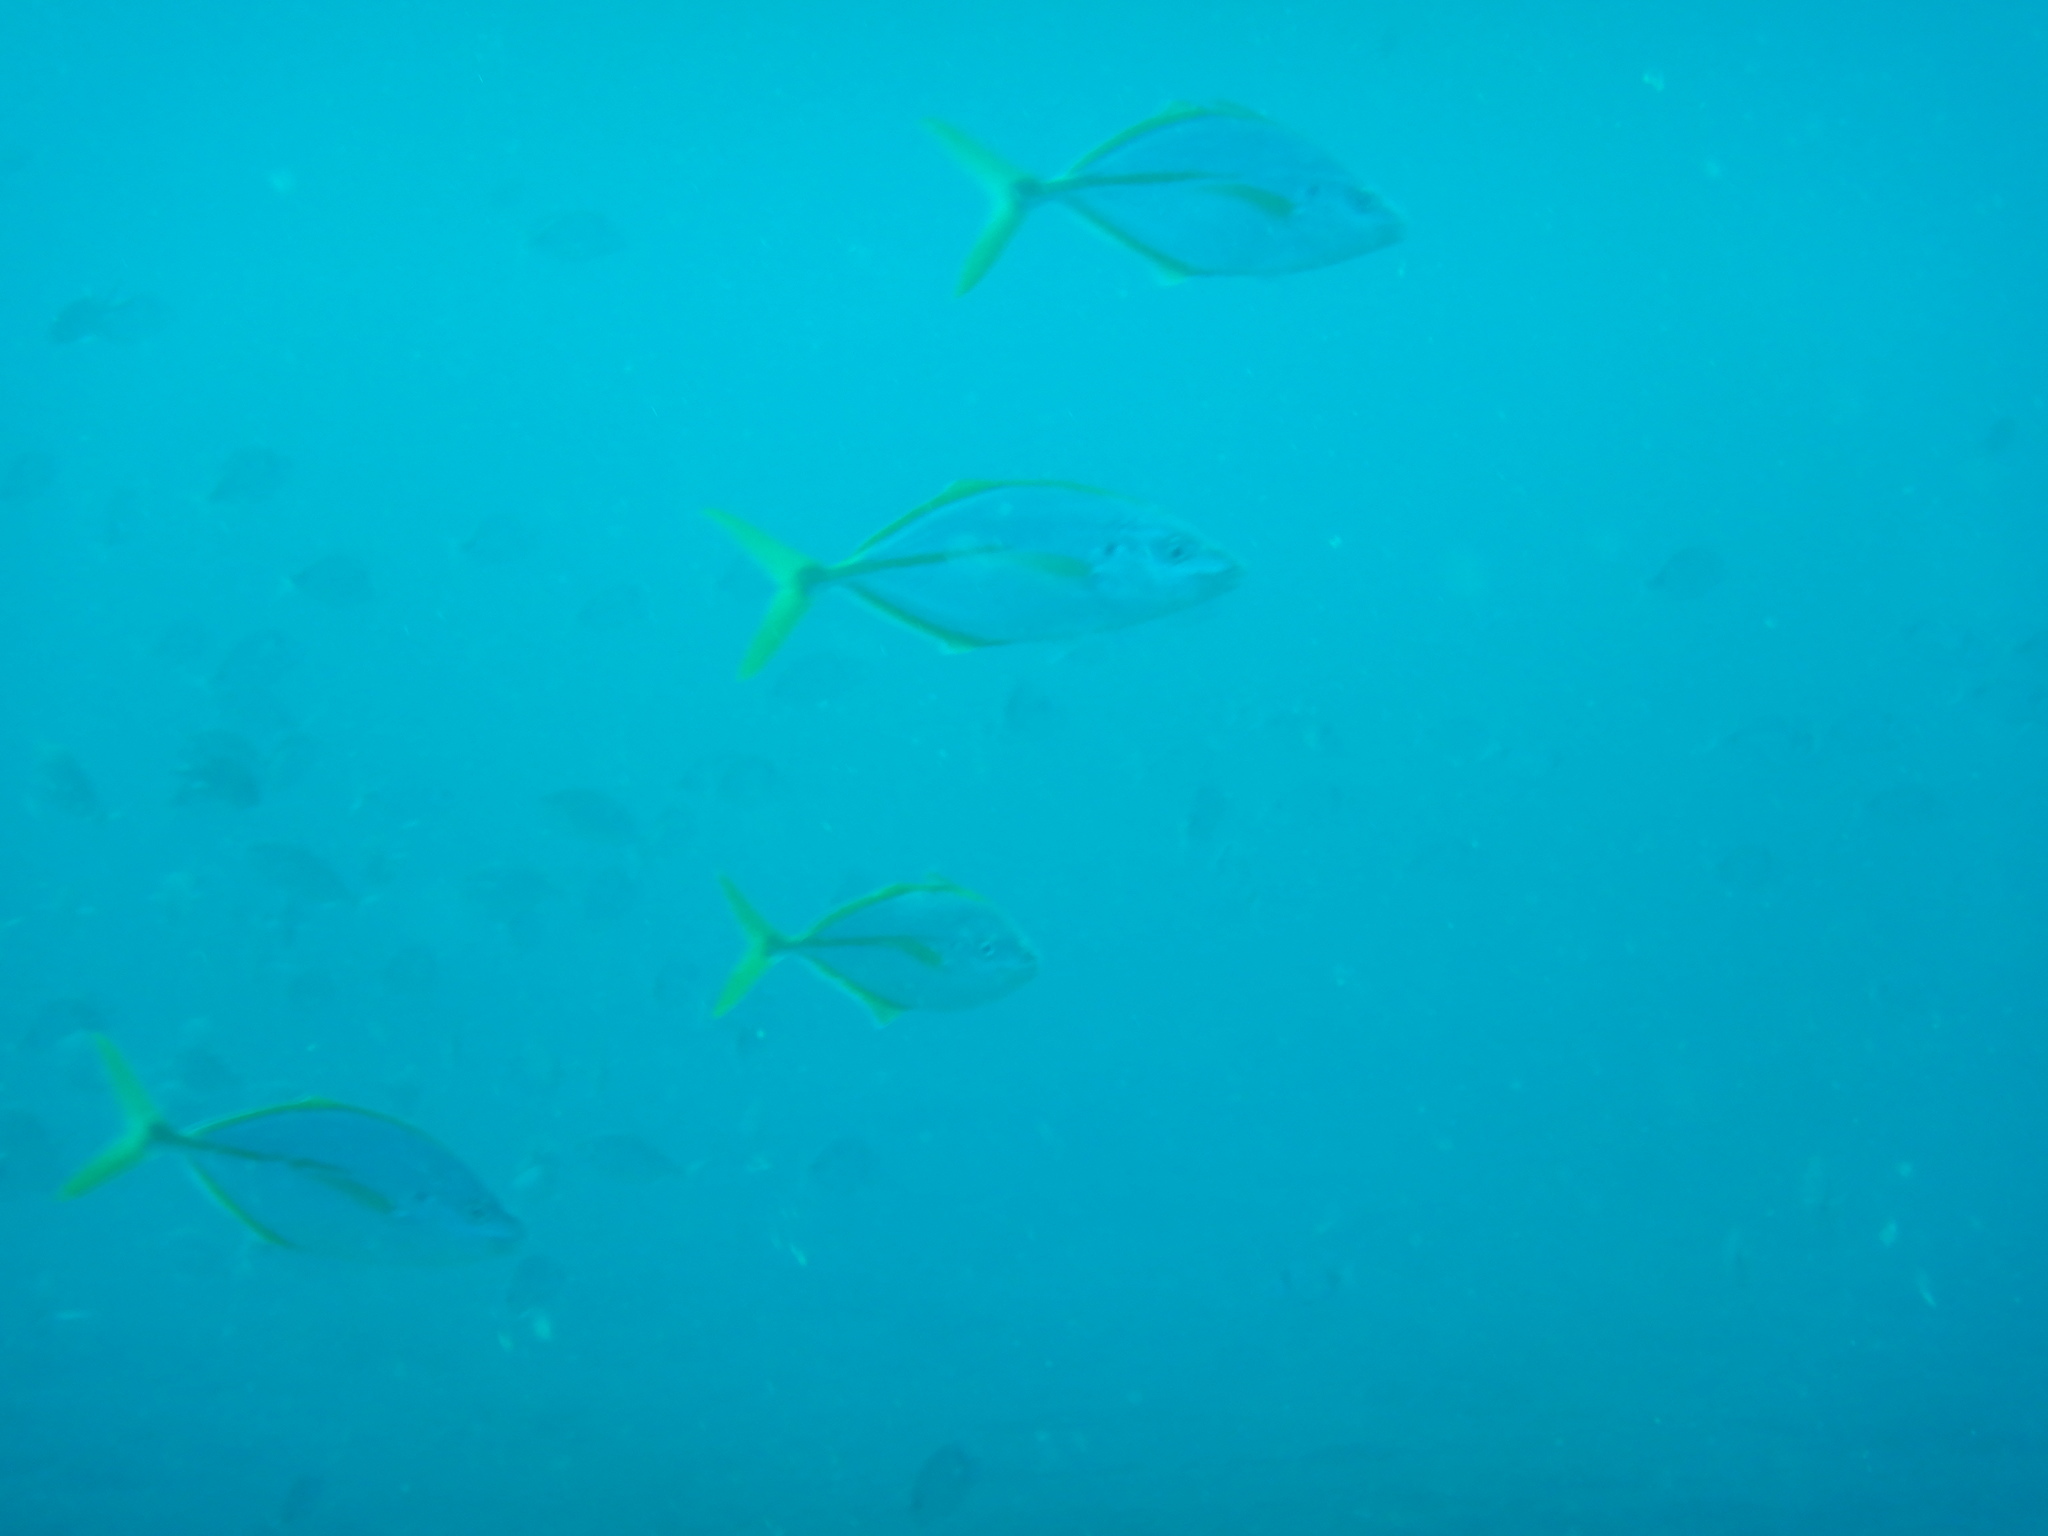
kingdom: Animalia
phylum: Chordata
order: Perciformes
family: Carangidae
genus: Pseudocaranx
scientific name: Pseudocaranx dentex
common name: White trevally
